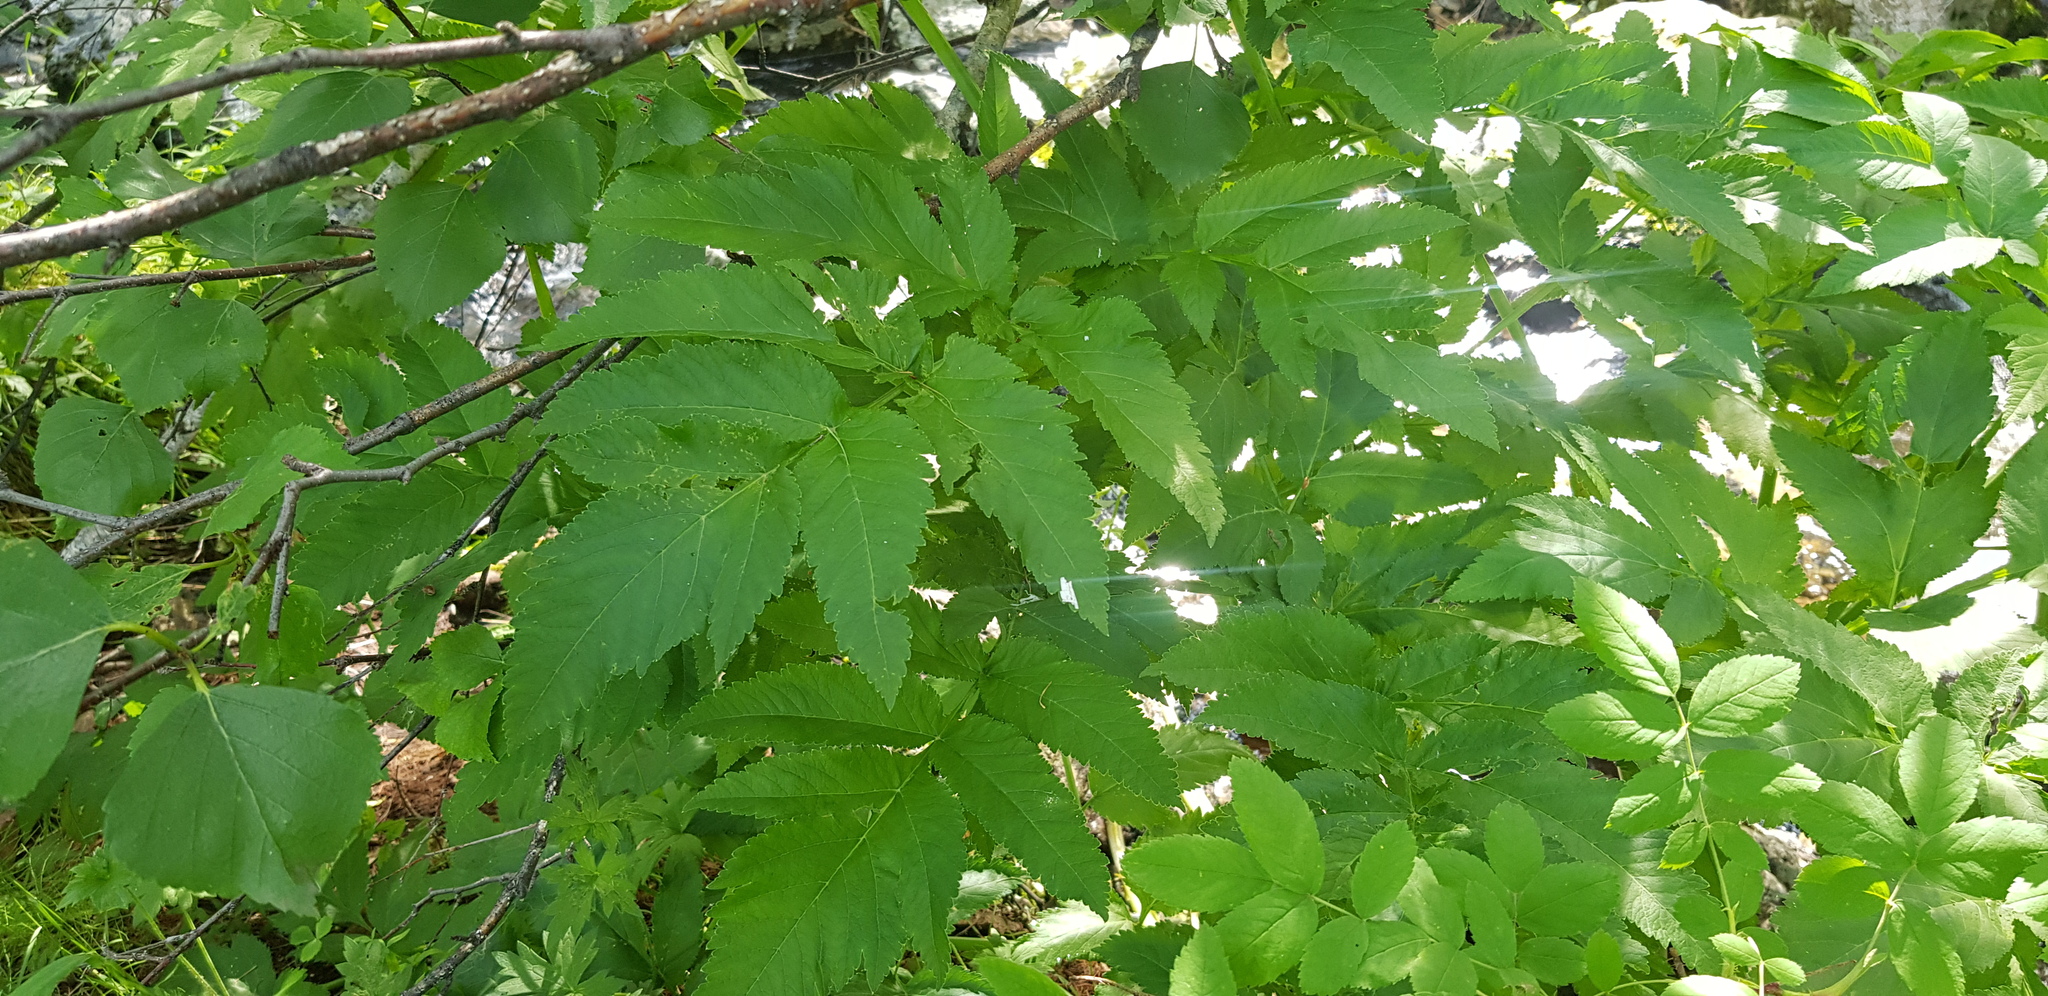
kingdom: Plantae
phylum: Tracheophyta
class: Magnoliopsida
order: Apiales
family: Apiaceae
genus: Angelica
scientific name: Angelica decurrens
